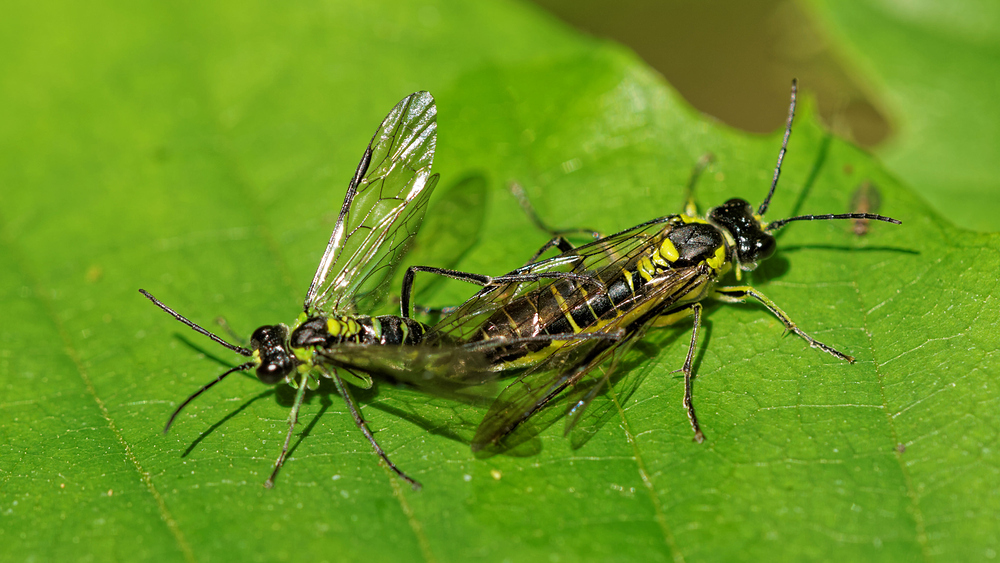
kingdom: Animalia
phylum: Arthropoda
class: Insecta
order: Hymenoptera
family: Tenthredinidae
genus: Tenthredo
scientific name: Tenthredo mesomela
